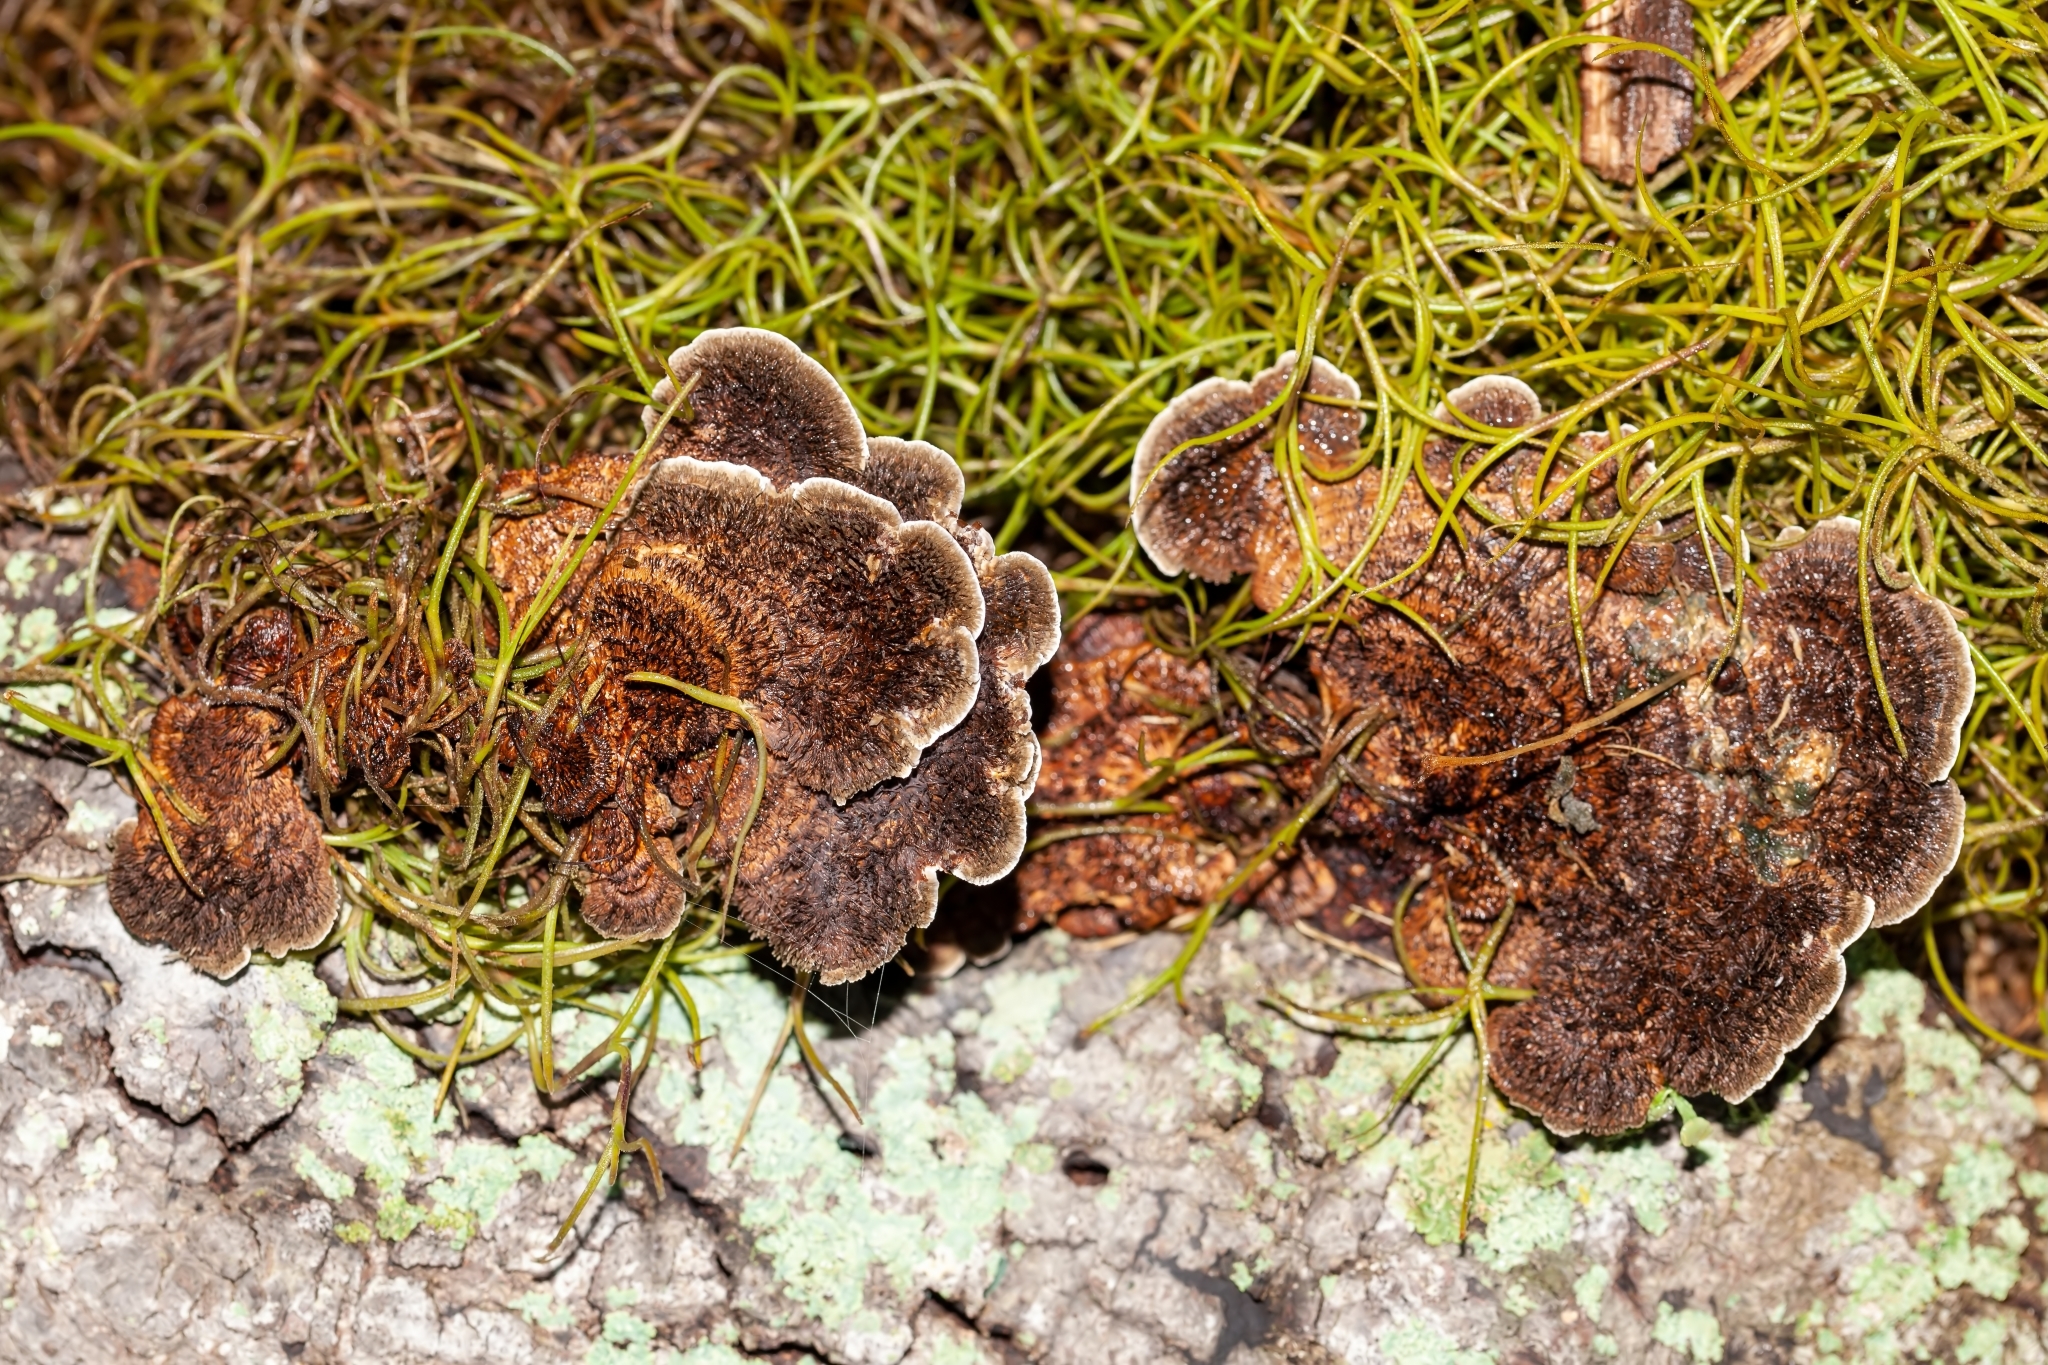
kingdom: Fungi
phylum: Basidiomycota
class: Agaricomycetes
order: Polyporales
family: Cerrenaceae
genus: Cerrena
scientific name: Cerrena hydnoides
